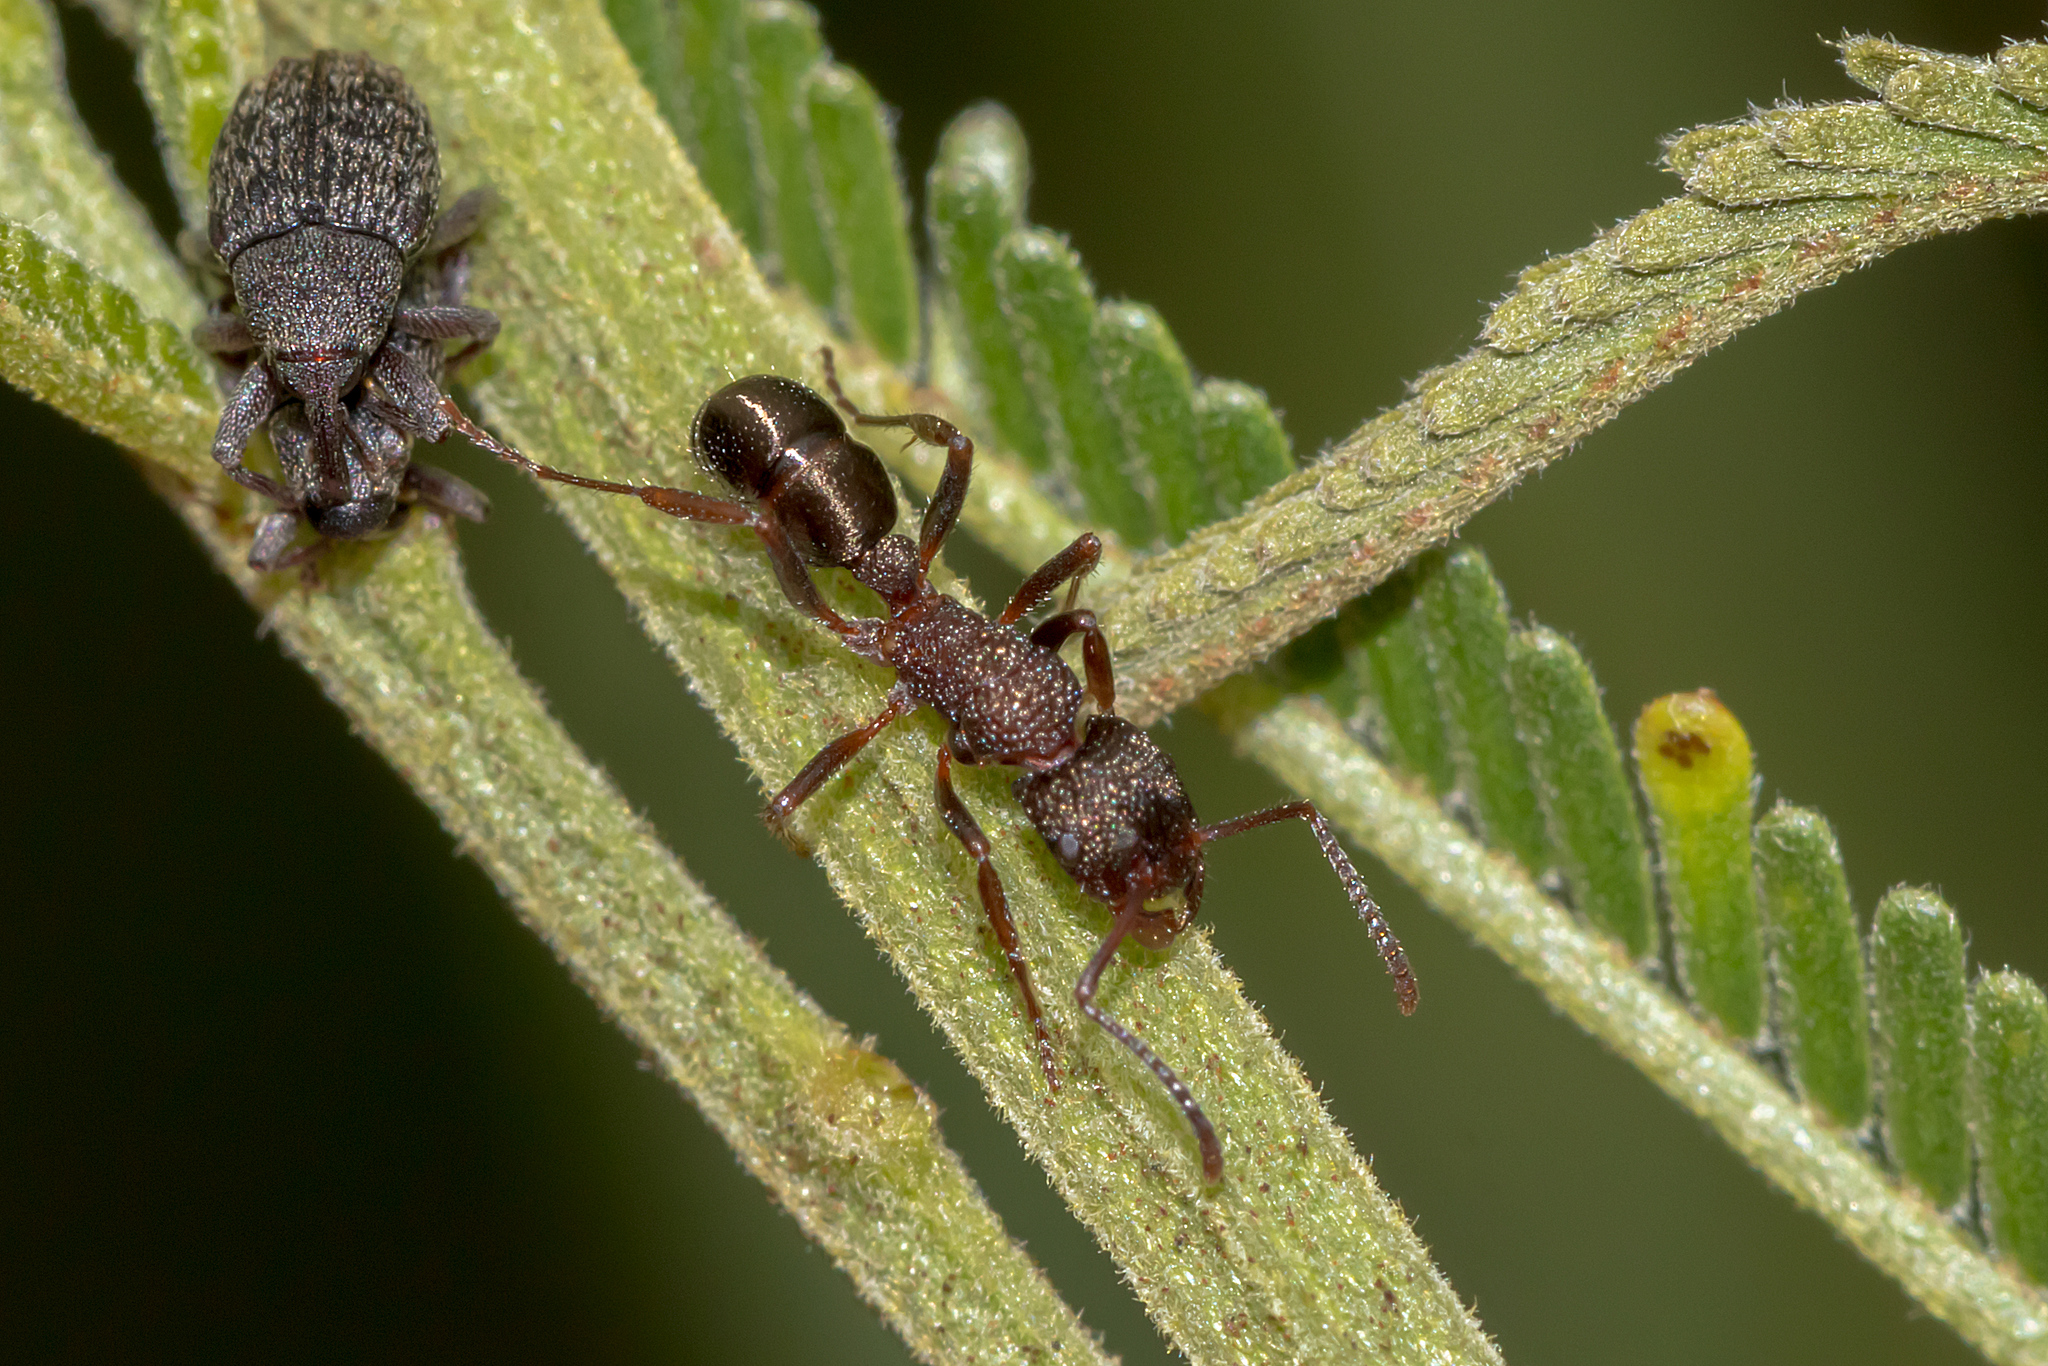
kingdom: Animalia
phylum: Arthropoda
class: Insecta
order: Hymenoptera
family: Formicidae
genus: Rhytidoponera
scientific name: Rhytidoponera tasmaniensis
